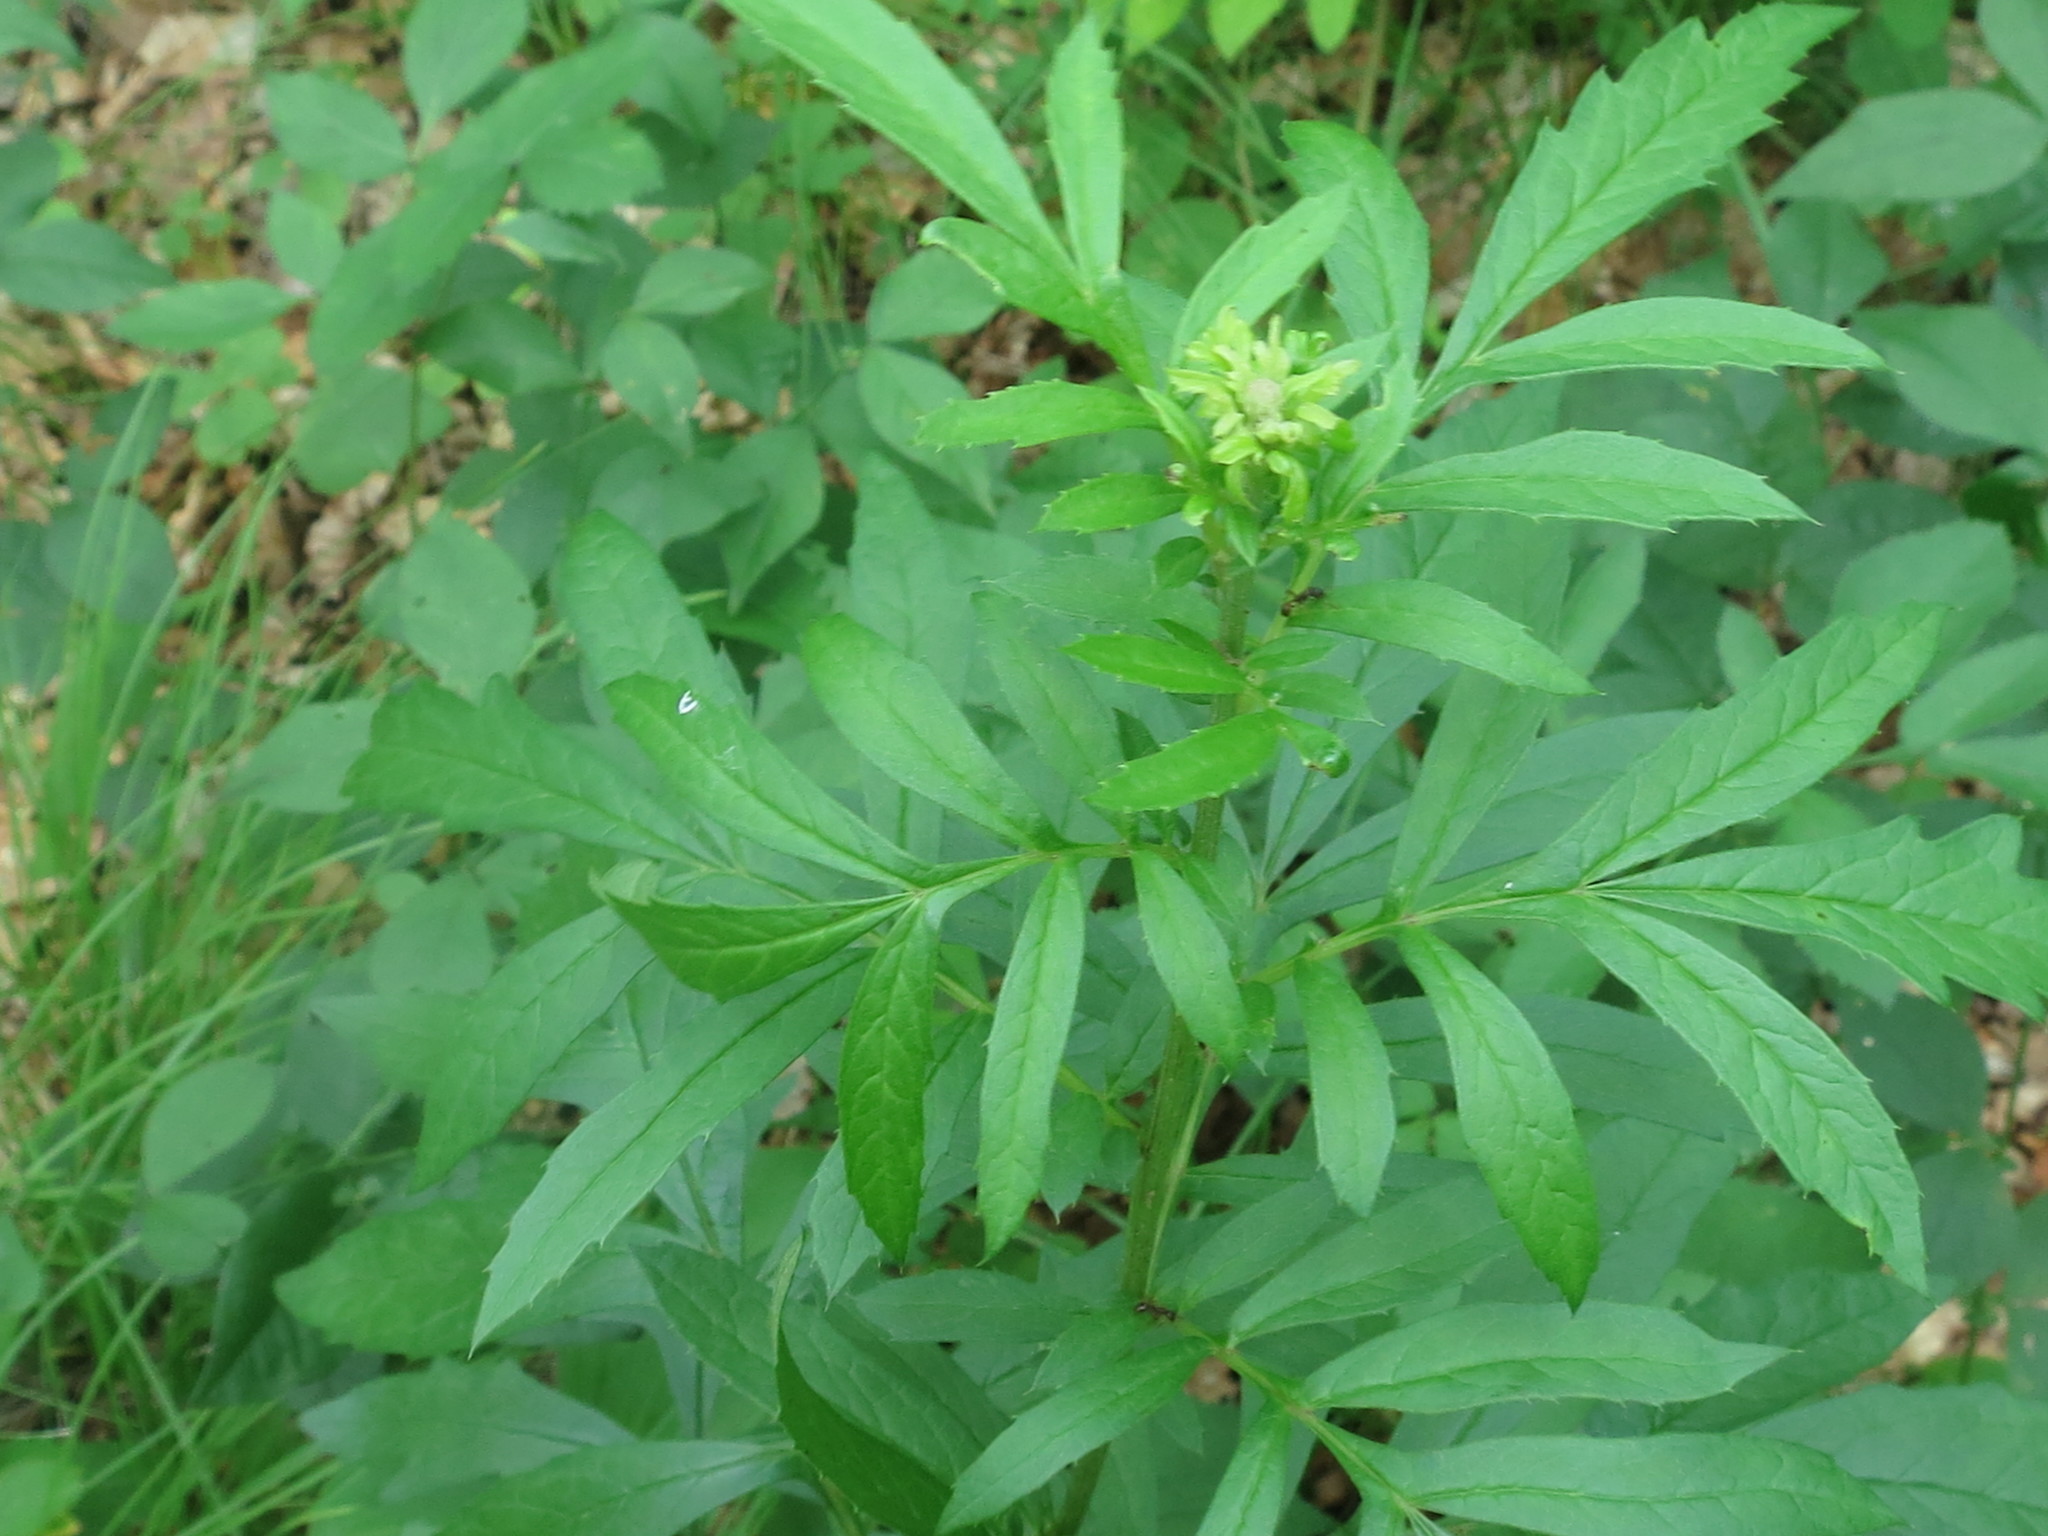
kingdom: Plantae
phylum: Tracheophyta
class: Magnoliopsida
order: Asterales
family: Asteraceae
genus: Serratula
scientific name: Serratula coronata
